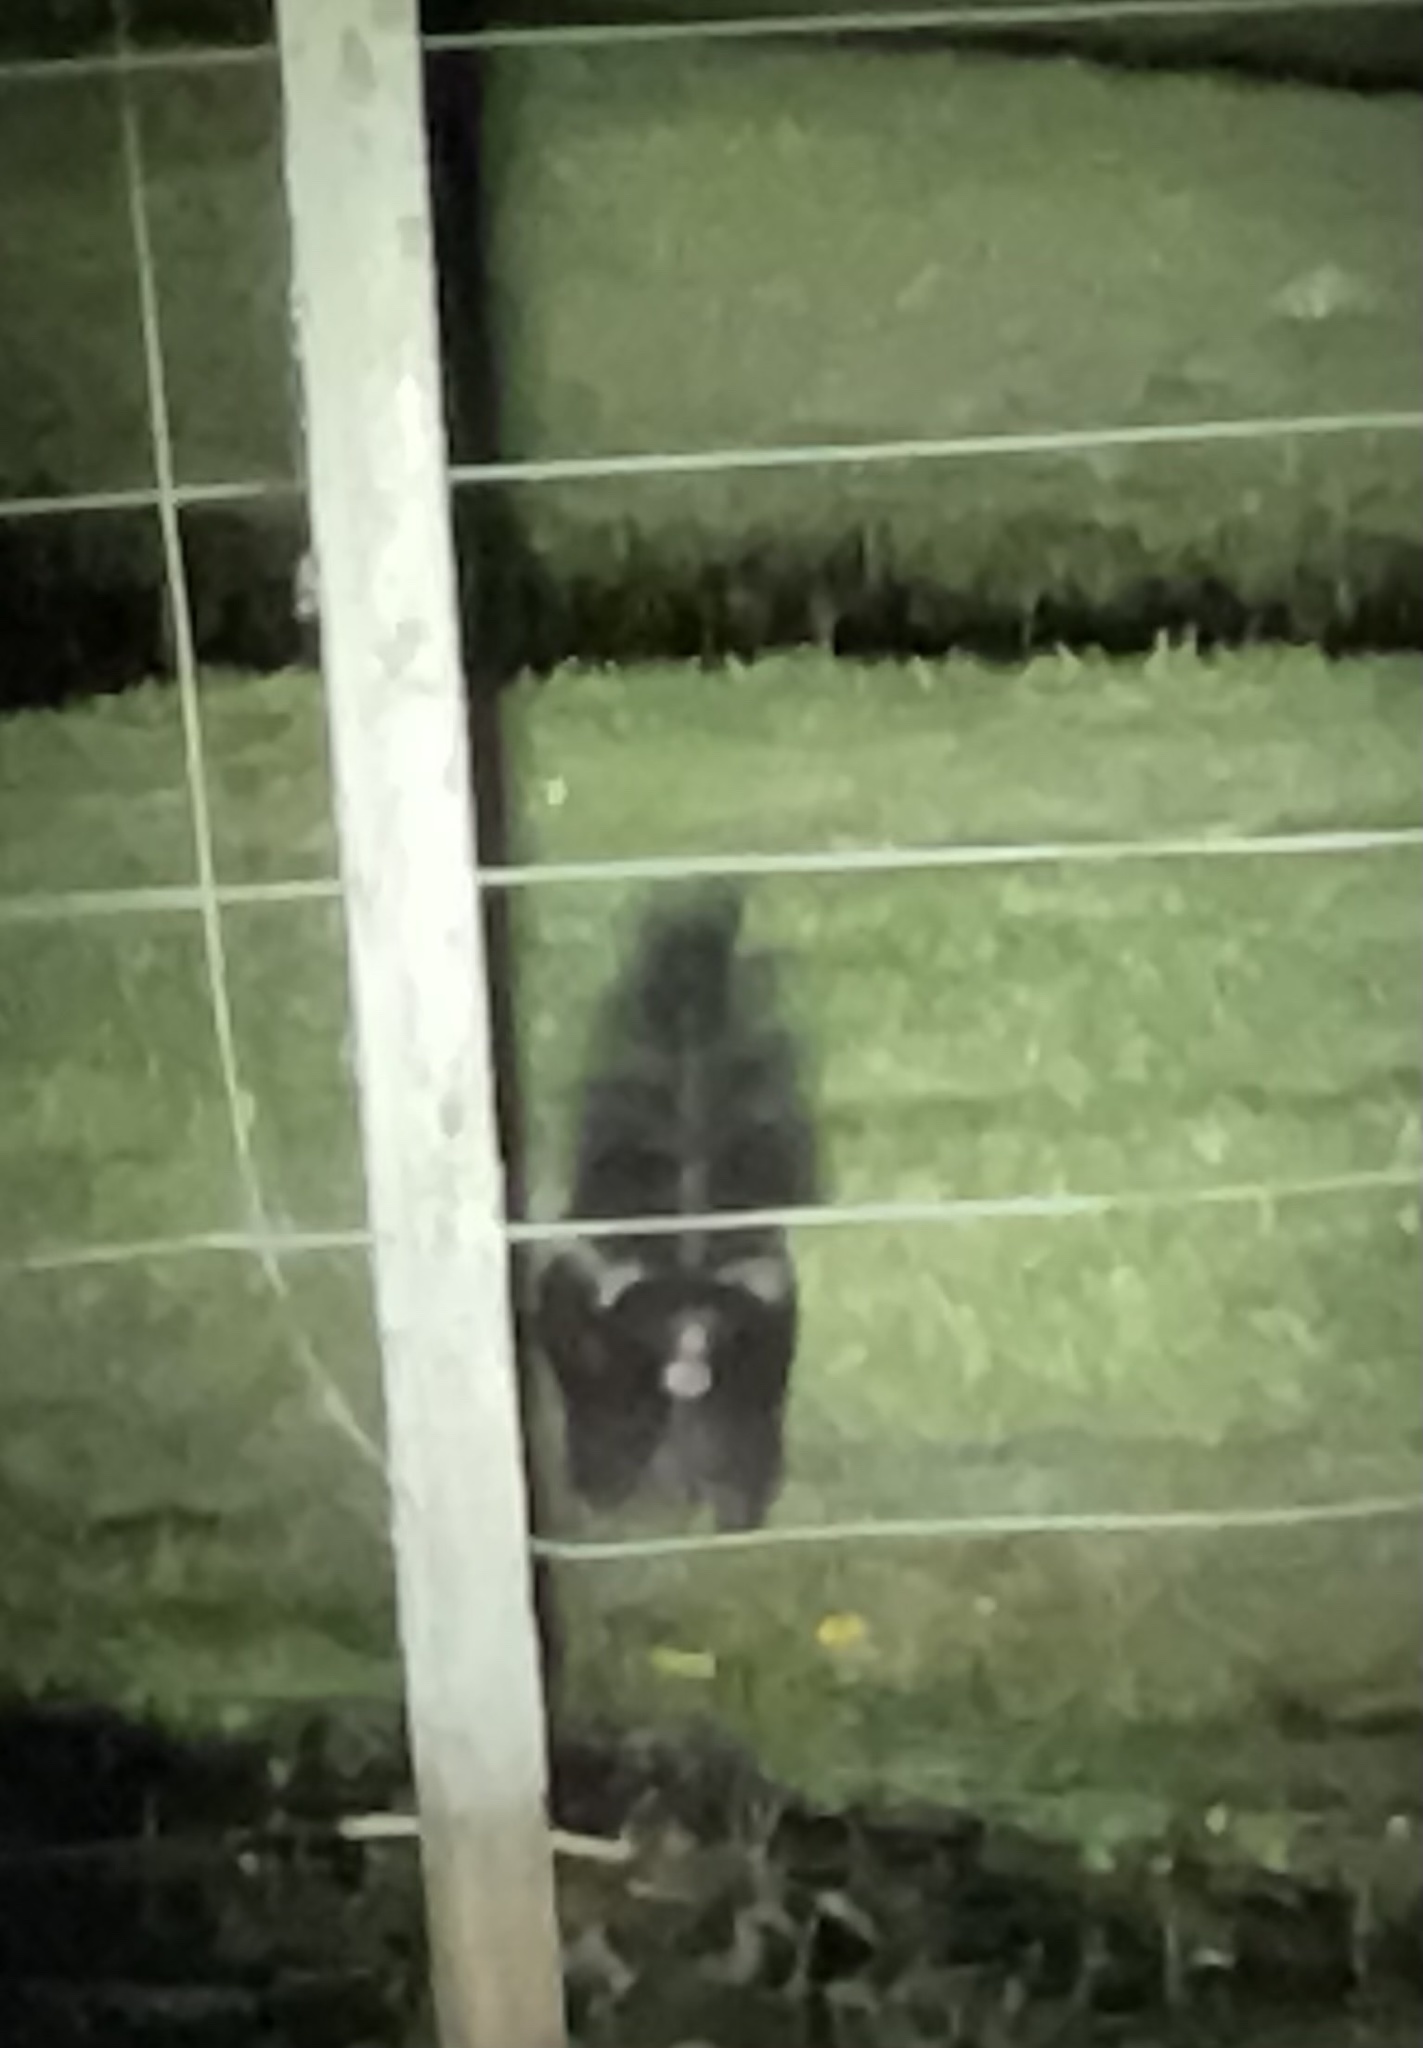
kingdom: Animalia
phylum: Chordata
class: Mammalia
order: Carnivora
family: Mephitidae
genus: Conepatus
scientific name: Conepatus chinga
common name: Molina's hog-nosed skunk
